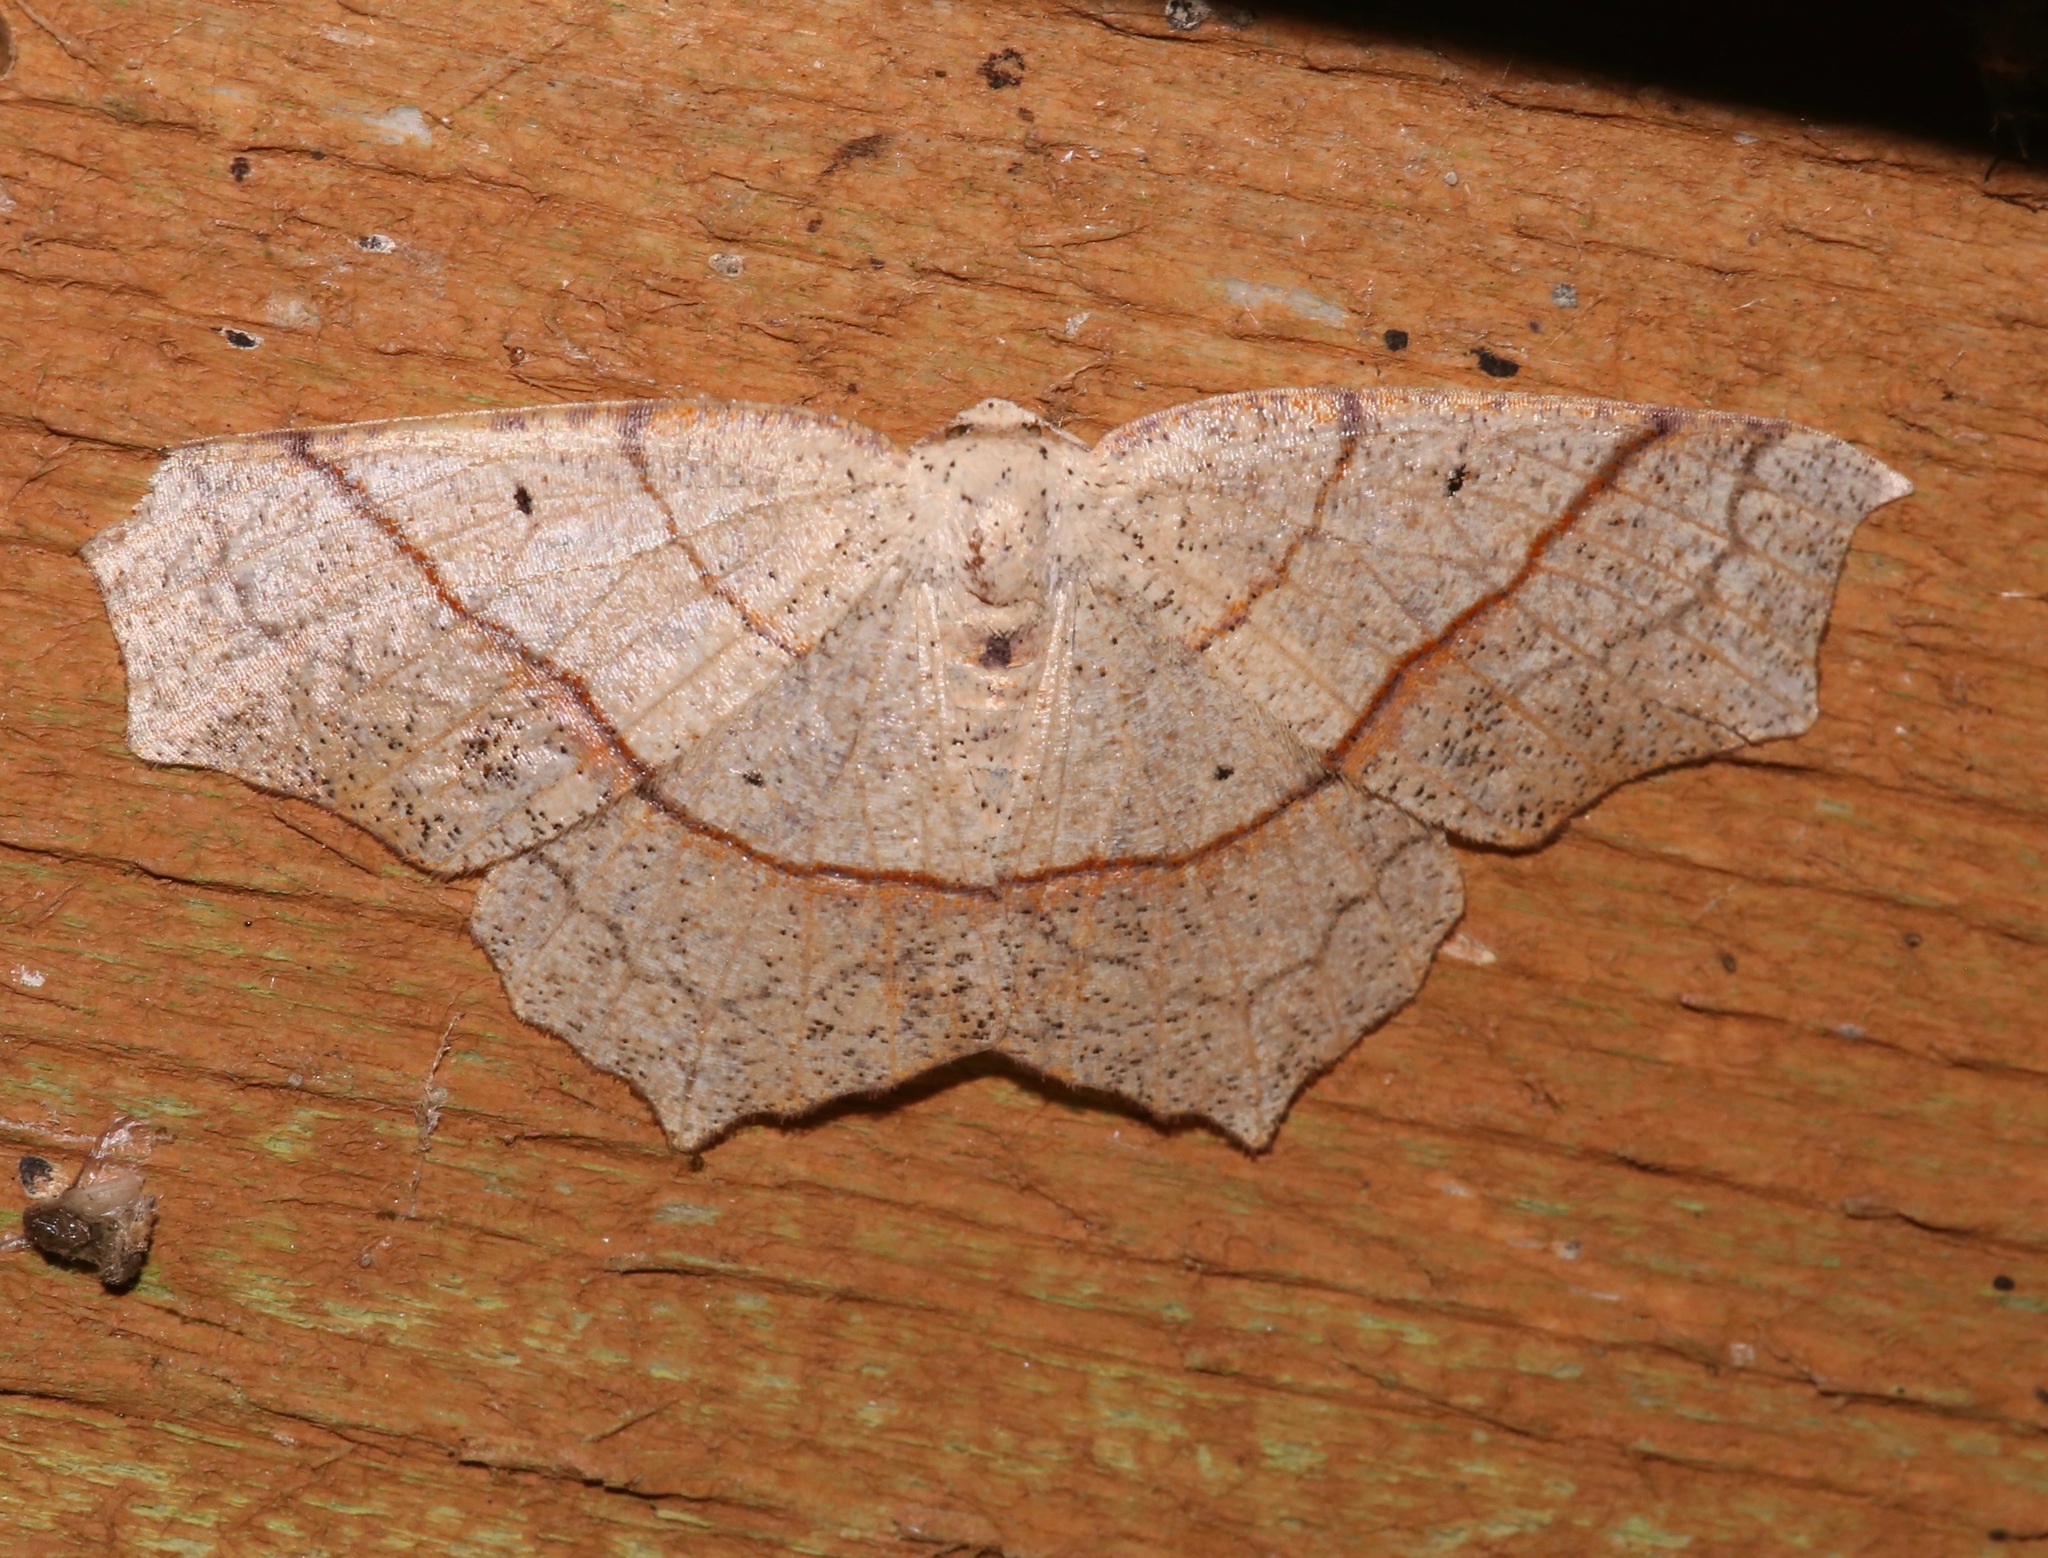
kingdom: Animalia
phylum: Arthropoda
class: Insecta
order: Lepidoptera
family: Geometridae
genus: Besma
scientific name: Besma quercivoraria
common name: Oak besma
